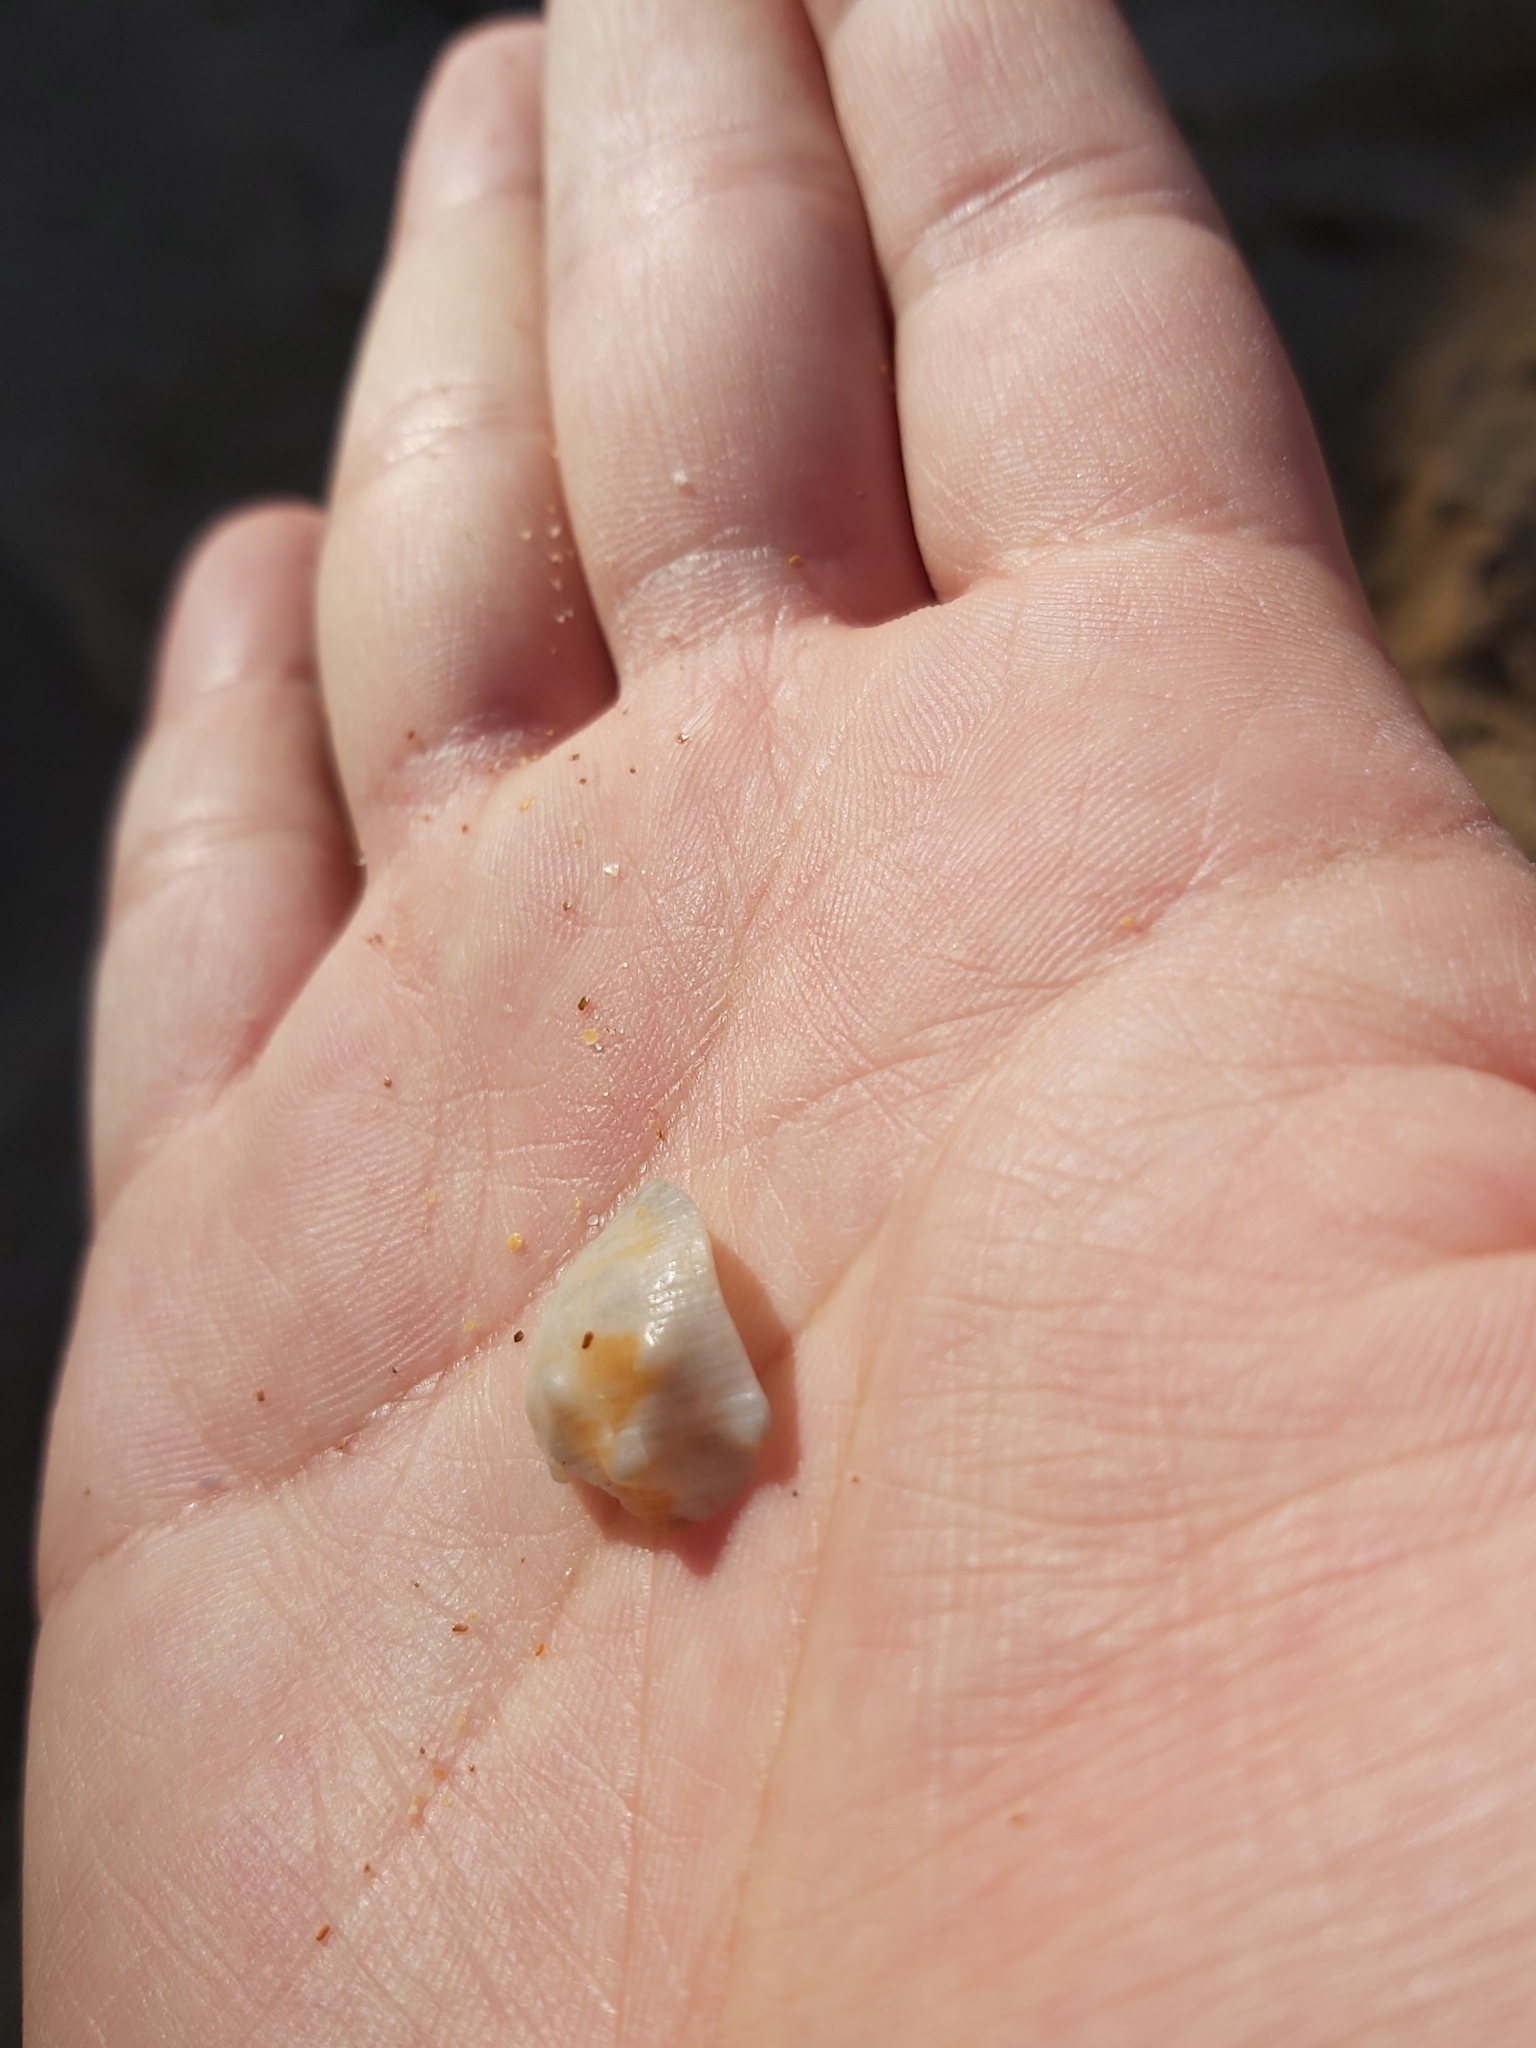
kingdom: Animalia
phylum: Mollusca
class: Gastropoda
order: Littorinimorpha
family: Charoniidae
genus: Charonia
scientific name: Charonia lampas
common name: Knobbed triton
